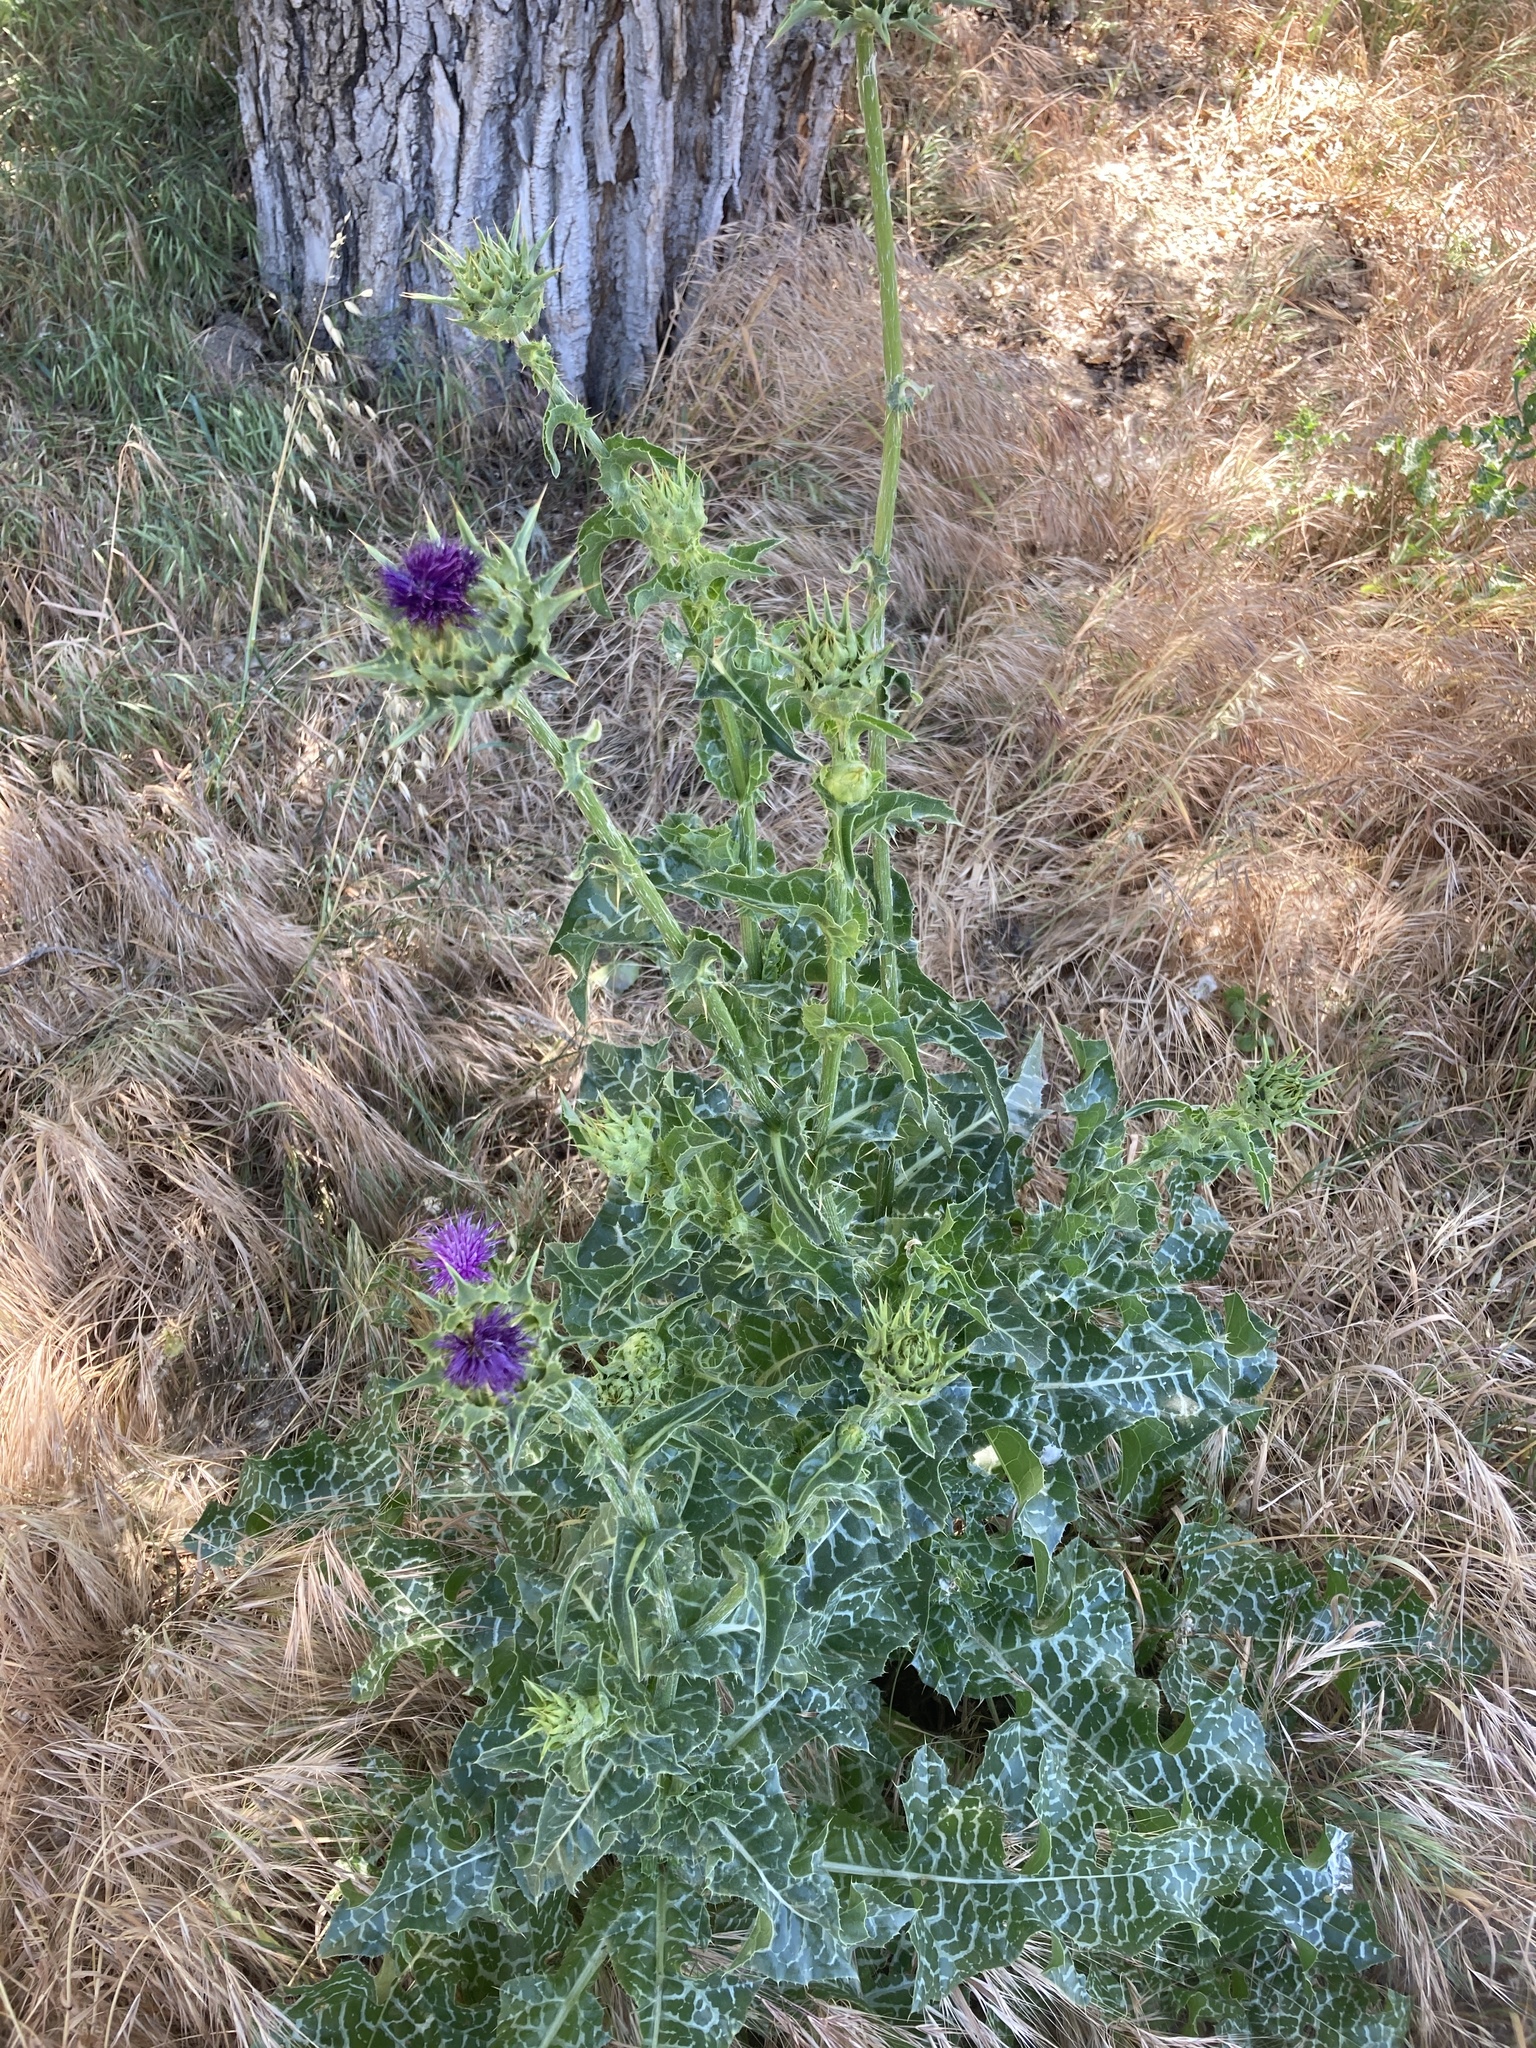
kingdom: Plantae
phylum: Tracheophyta
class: Magnoliopsida
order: Asterales
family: Asteraceae
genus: Silybum
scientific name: Silybum marianum
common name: Milk thistle
